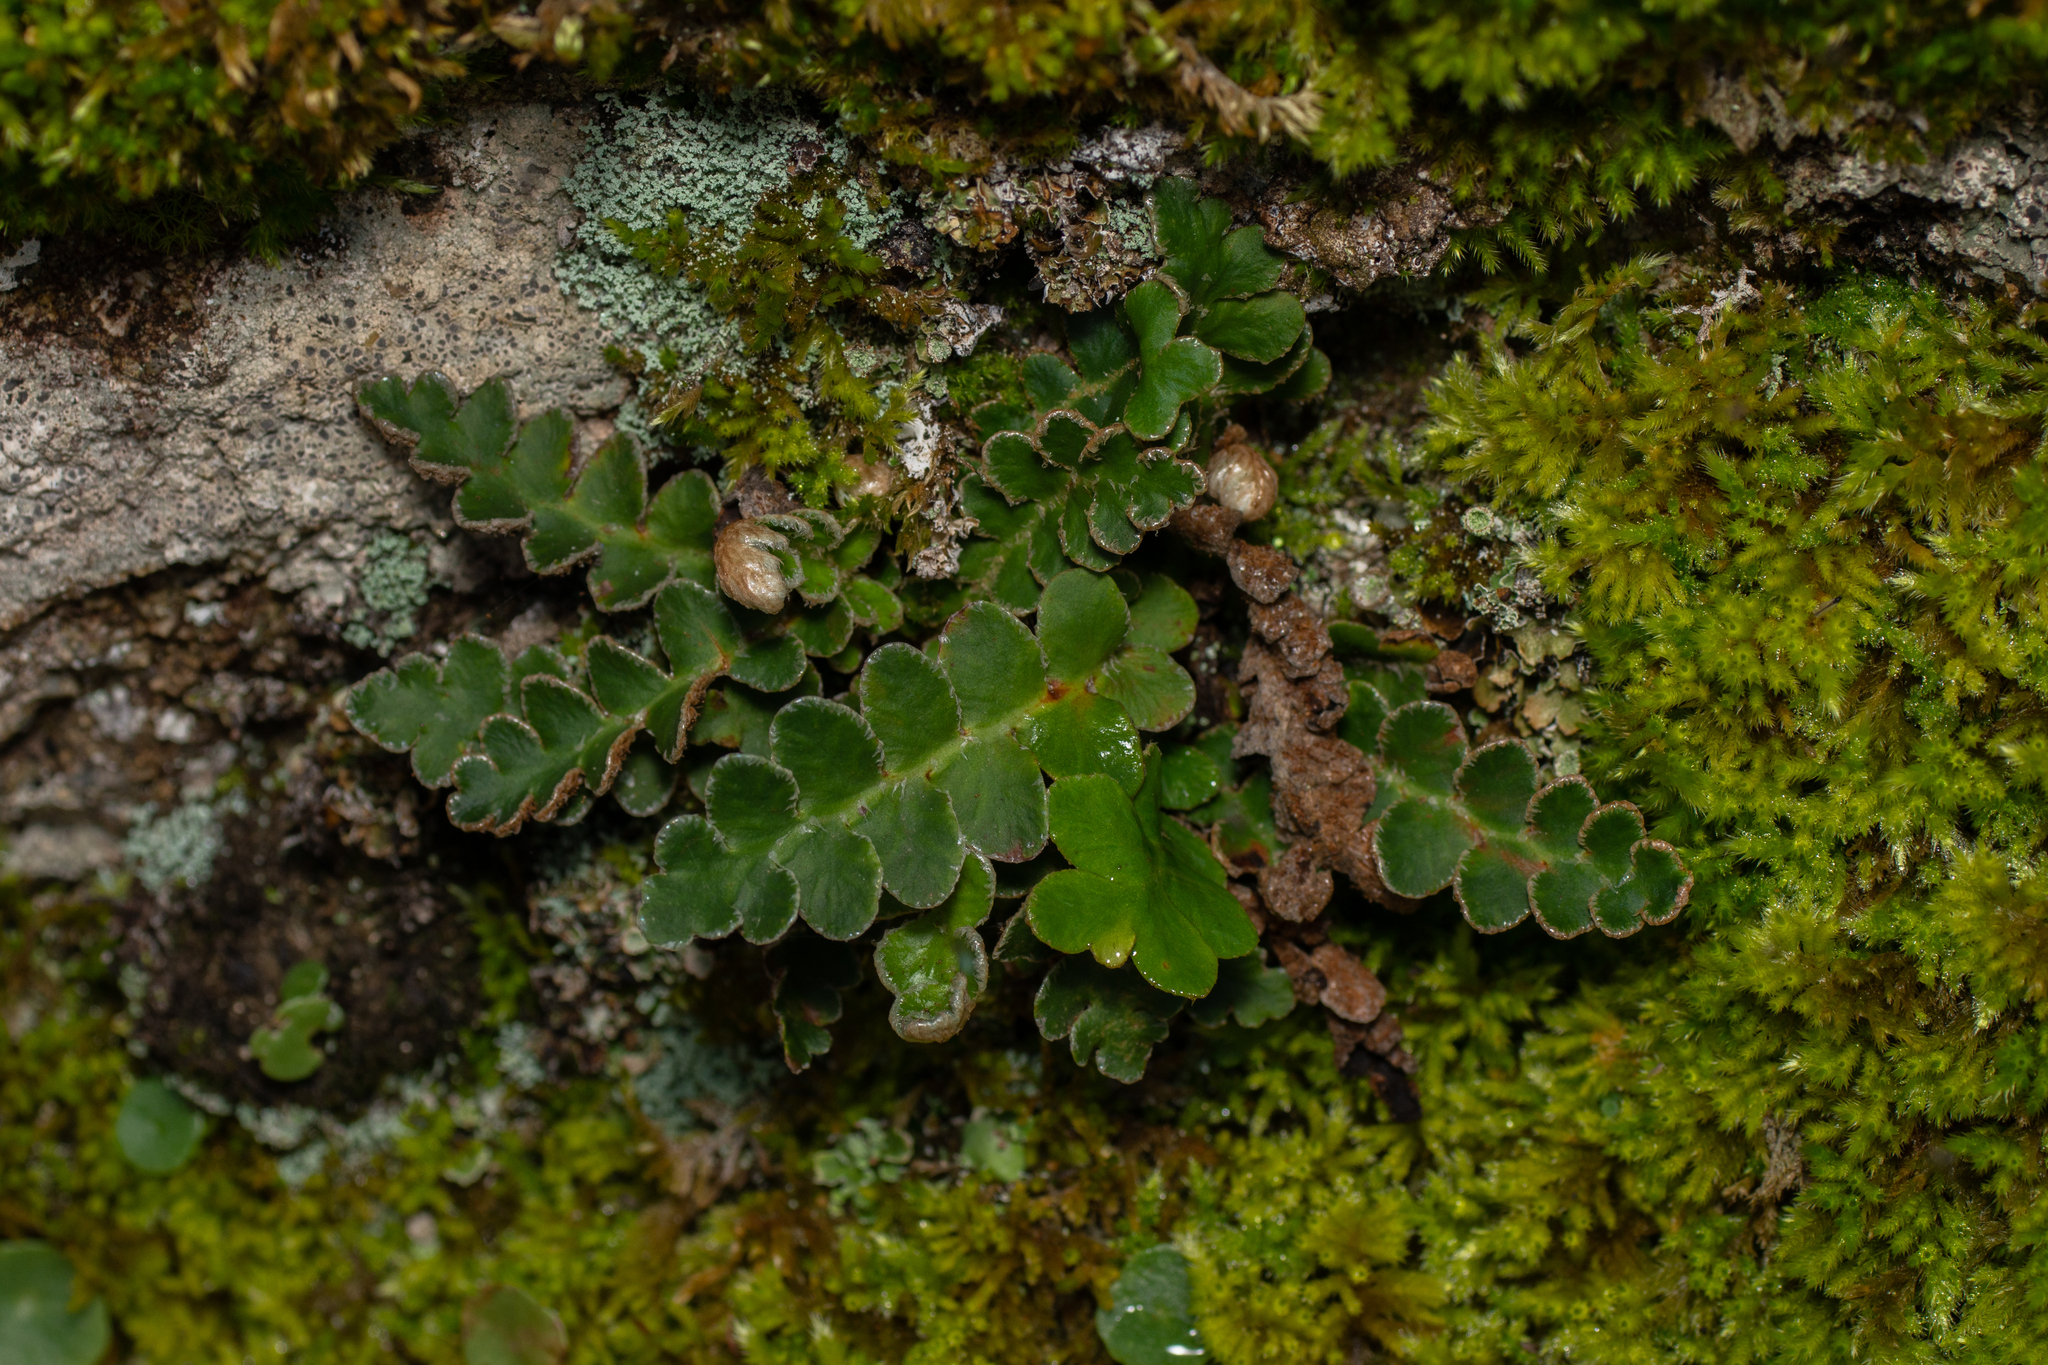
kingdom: Plantae
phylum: Tracheophyta
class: Polypodiopsida
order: Polypodiales
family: Aspleniaceae
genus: Asplenium
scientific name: Asplenium ceterach
